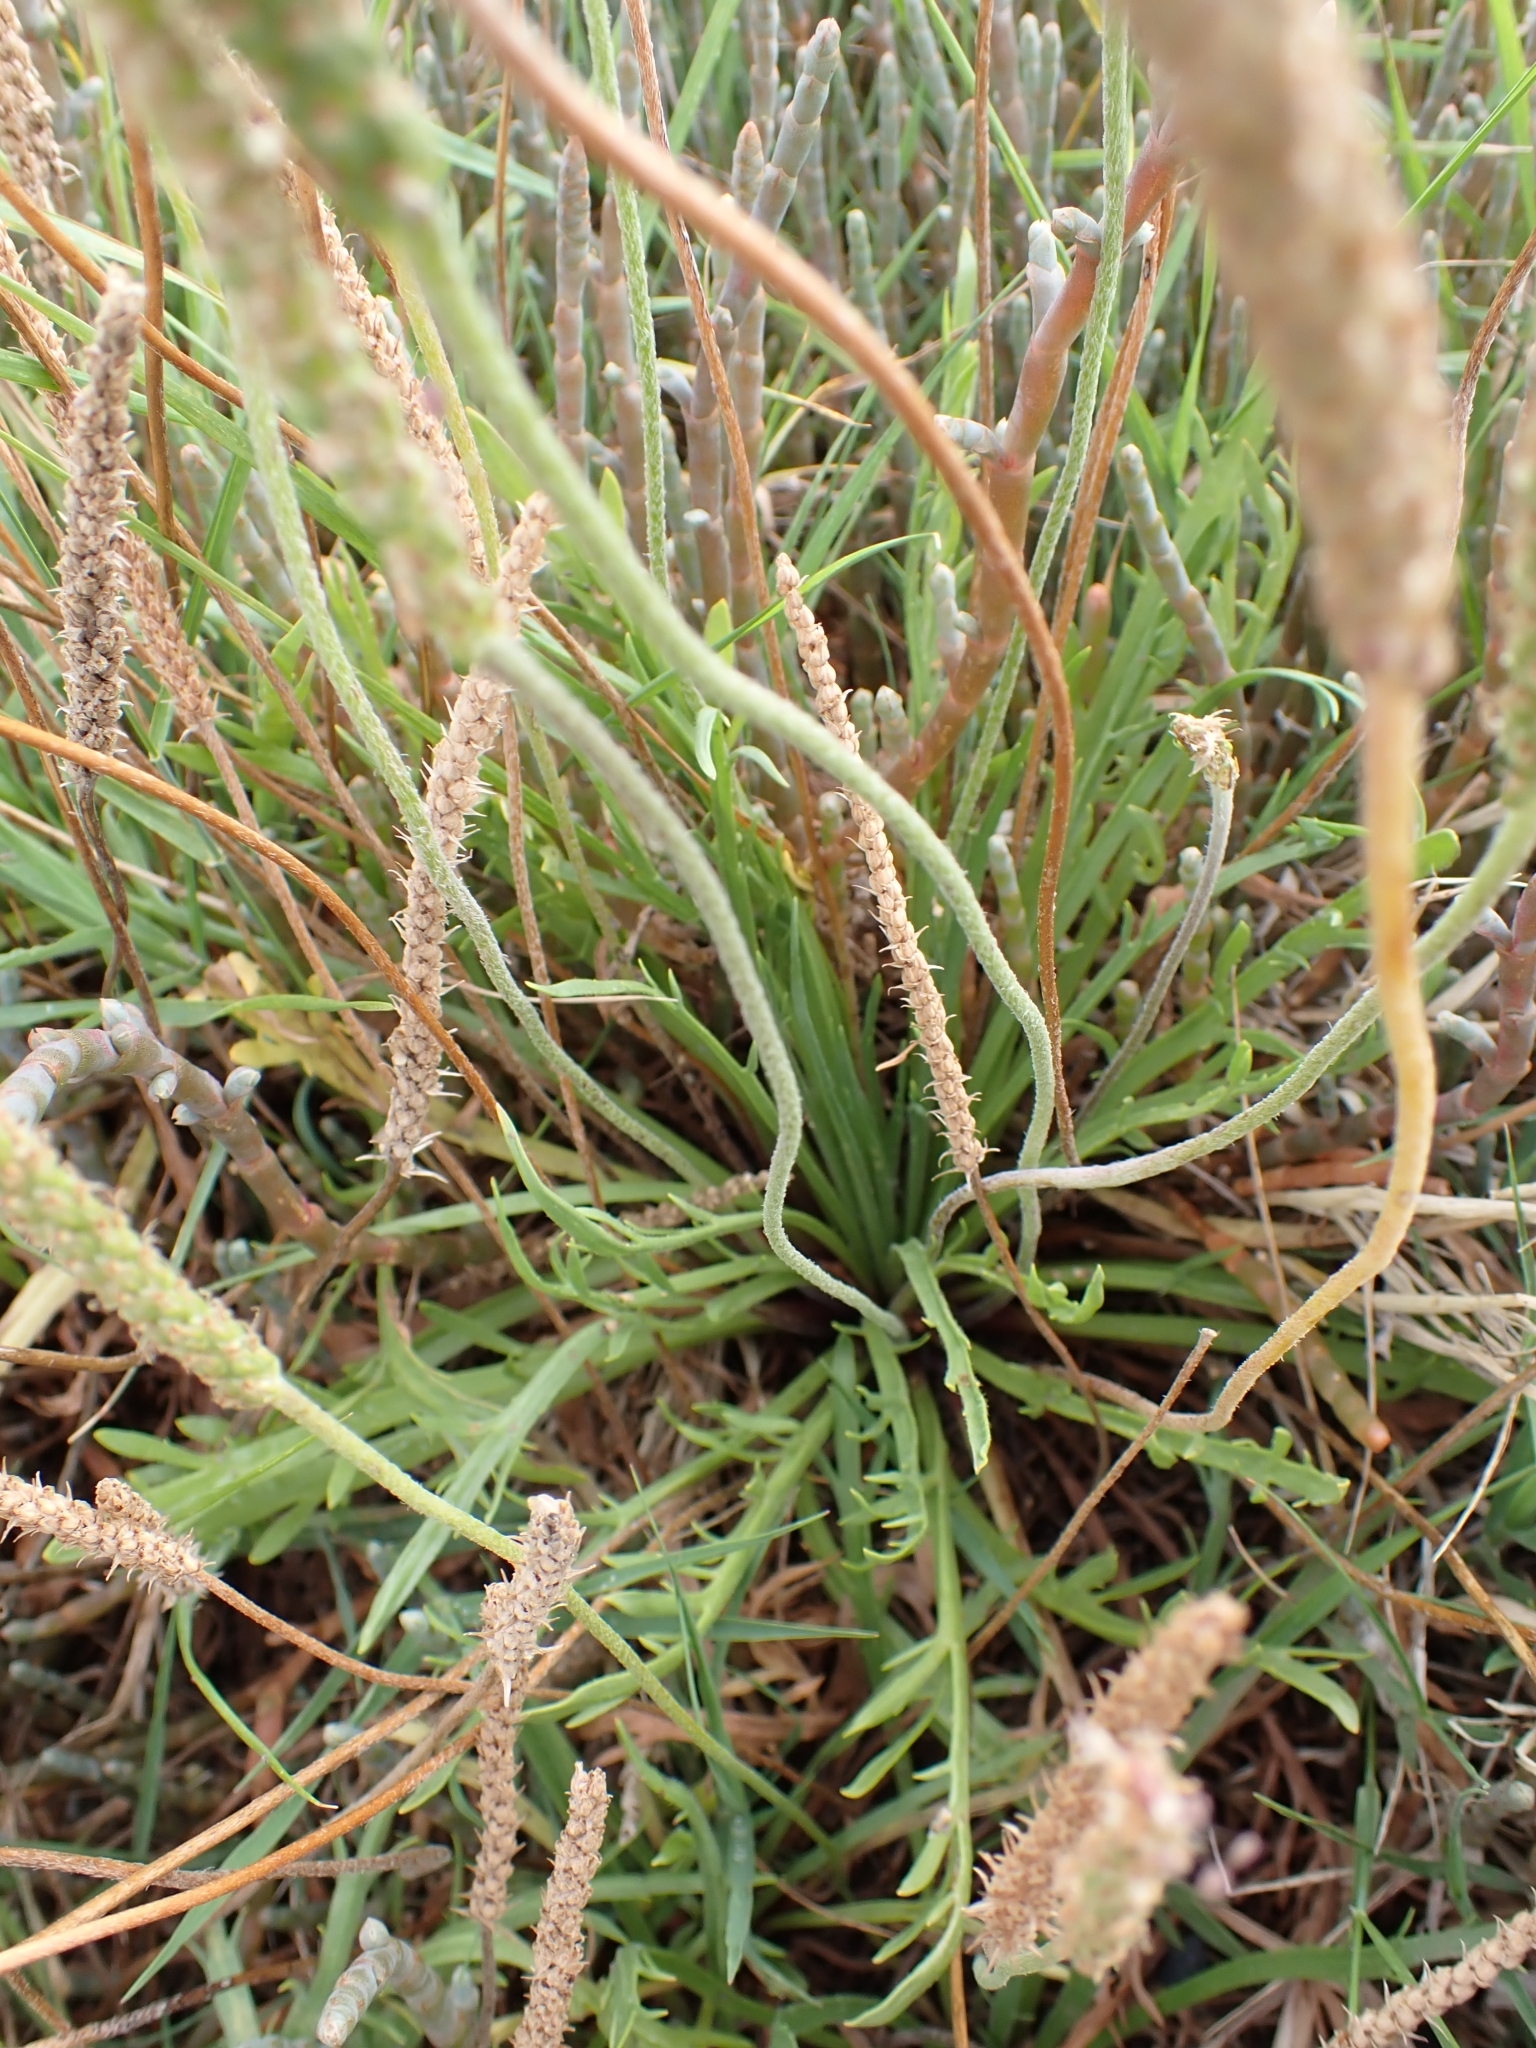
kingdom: Plantae
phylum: Tracheophyta
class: Magnoliopsida
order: Lamiales
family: Plantaginaceae
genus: Plantago
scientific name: Plantago coronopus
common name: Buck's-horn plantain
